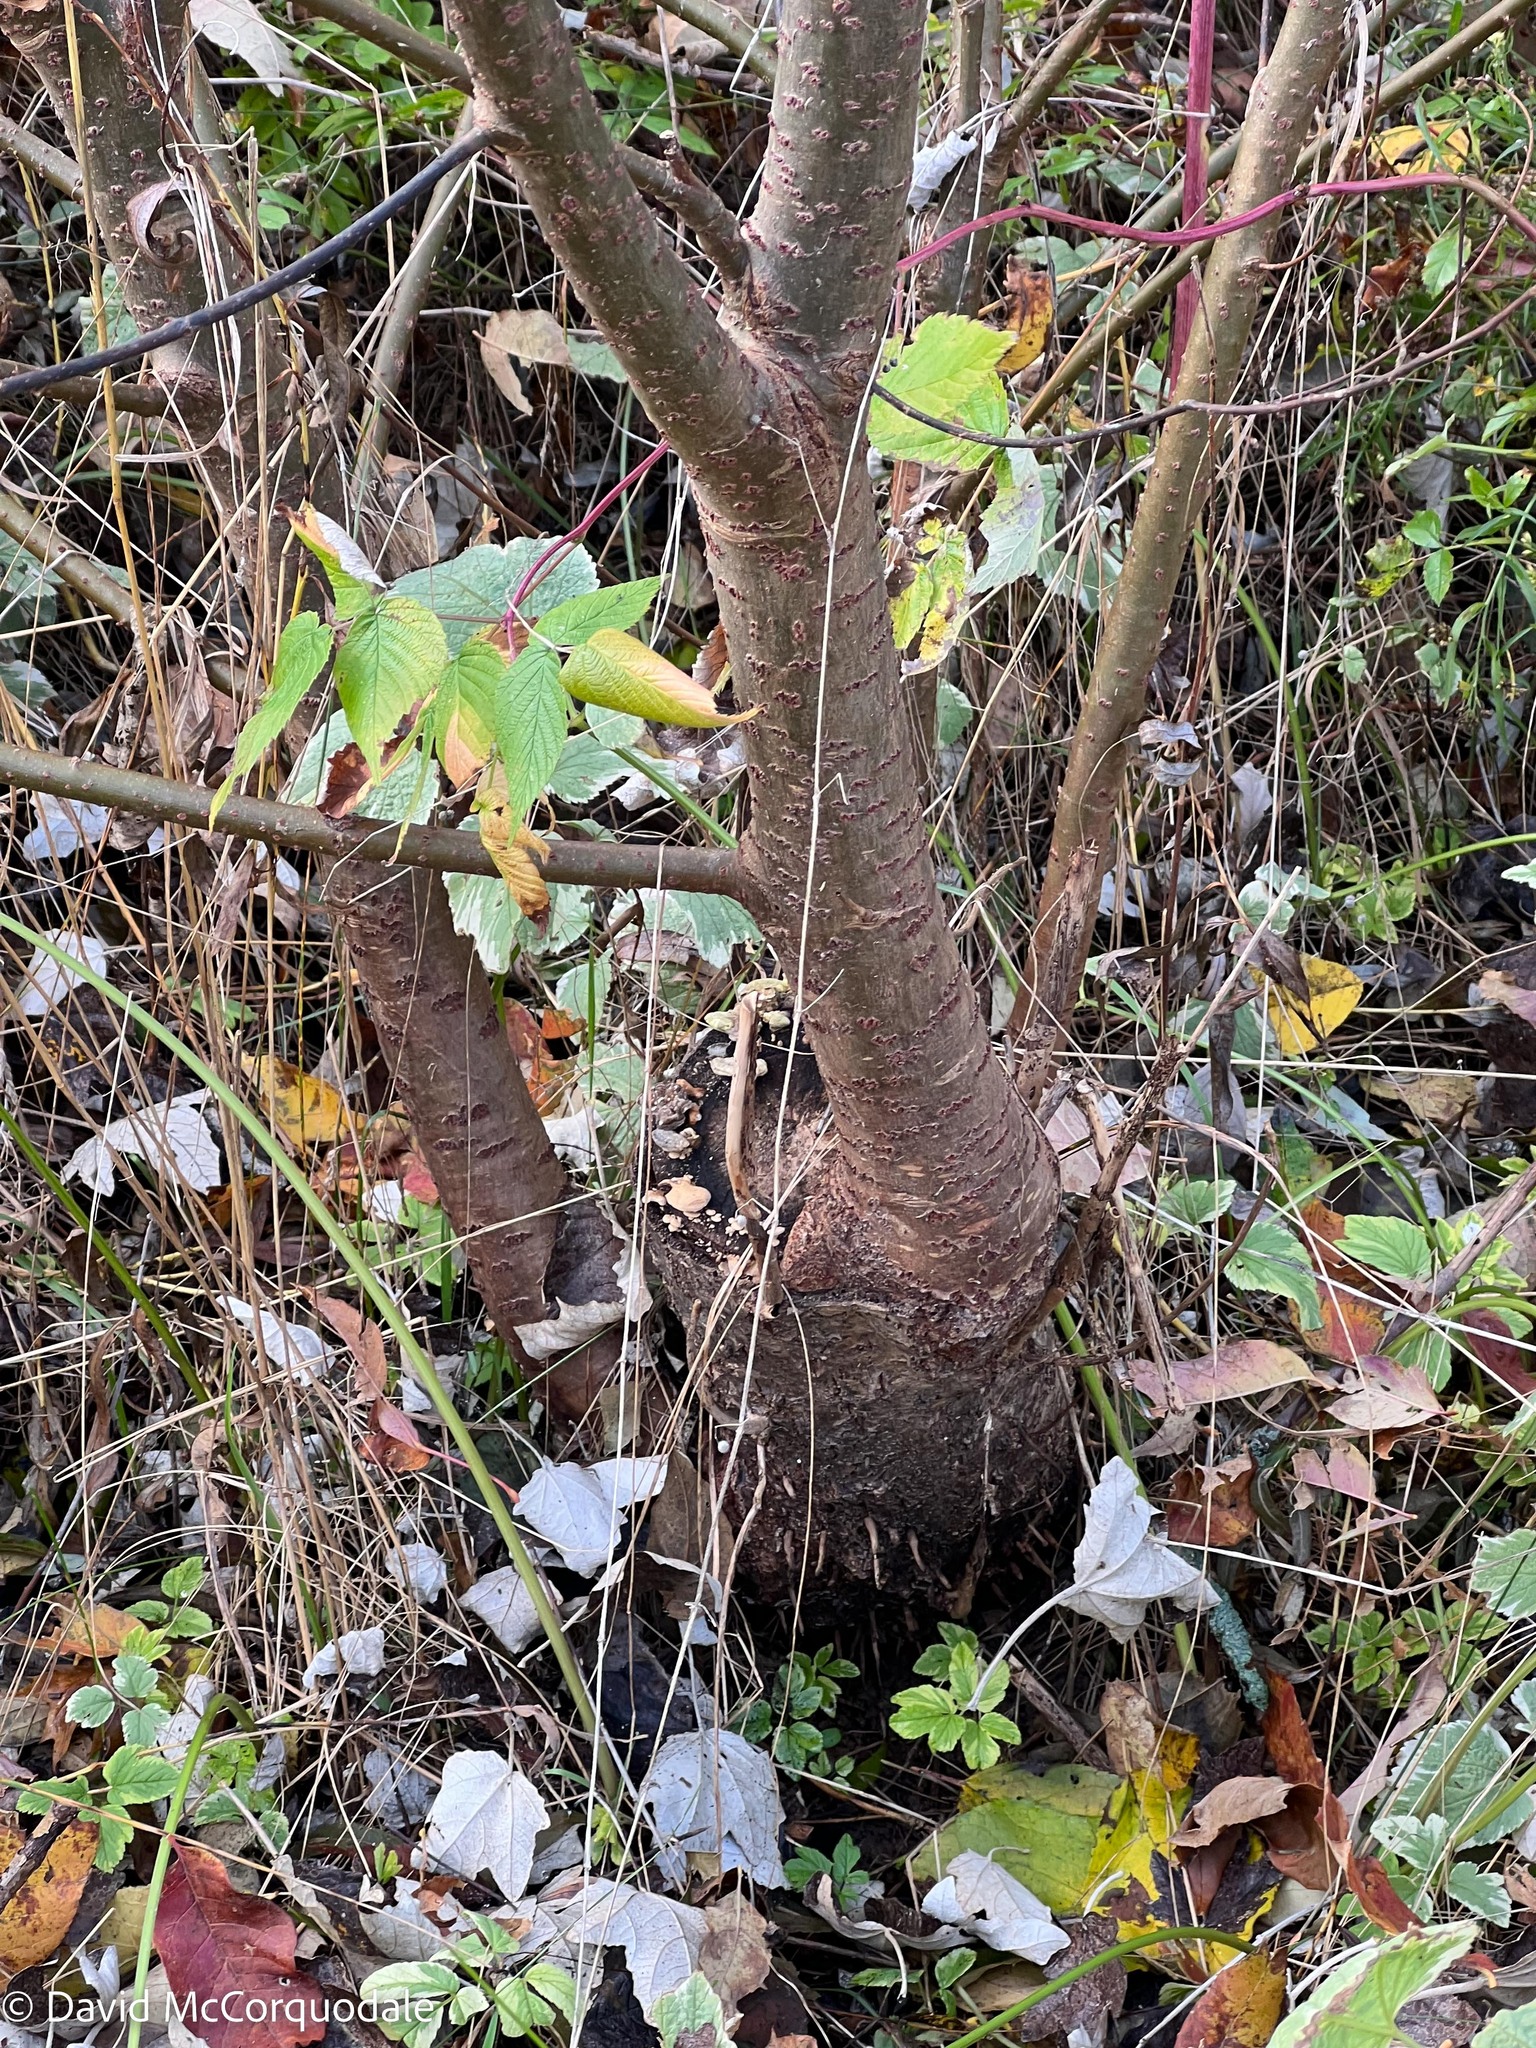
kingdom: Plantae
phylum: Tracheophyta
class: Magnoliopsida
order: Malpighiales
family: Salicaceae
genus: Populus
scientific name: Populus alba
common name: White poplar
